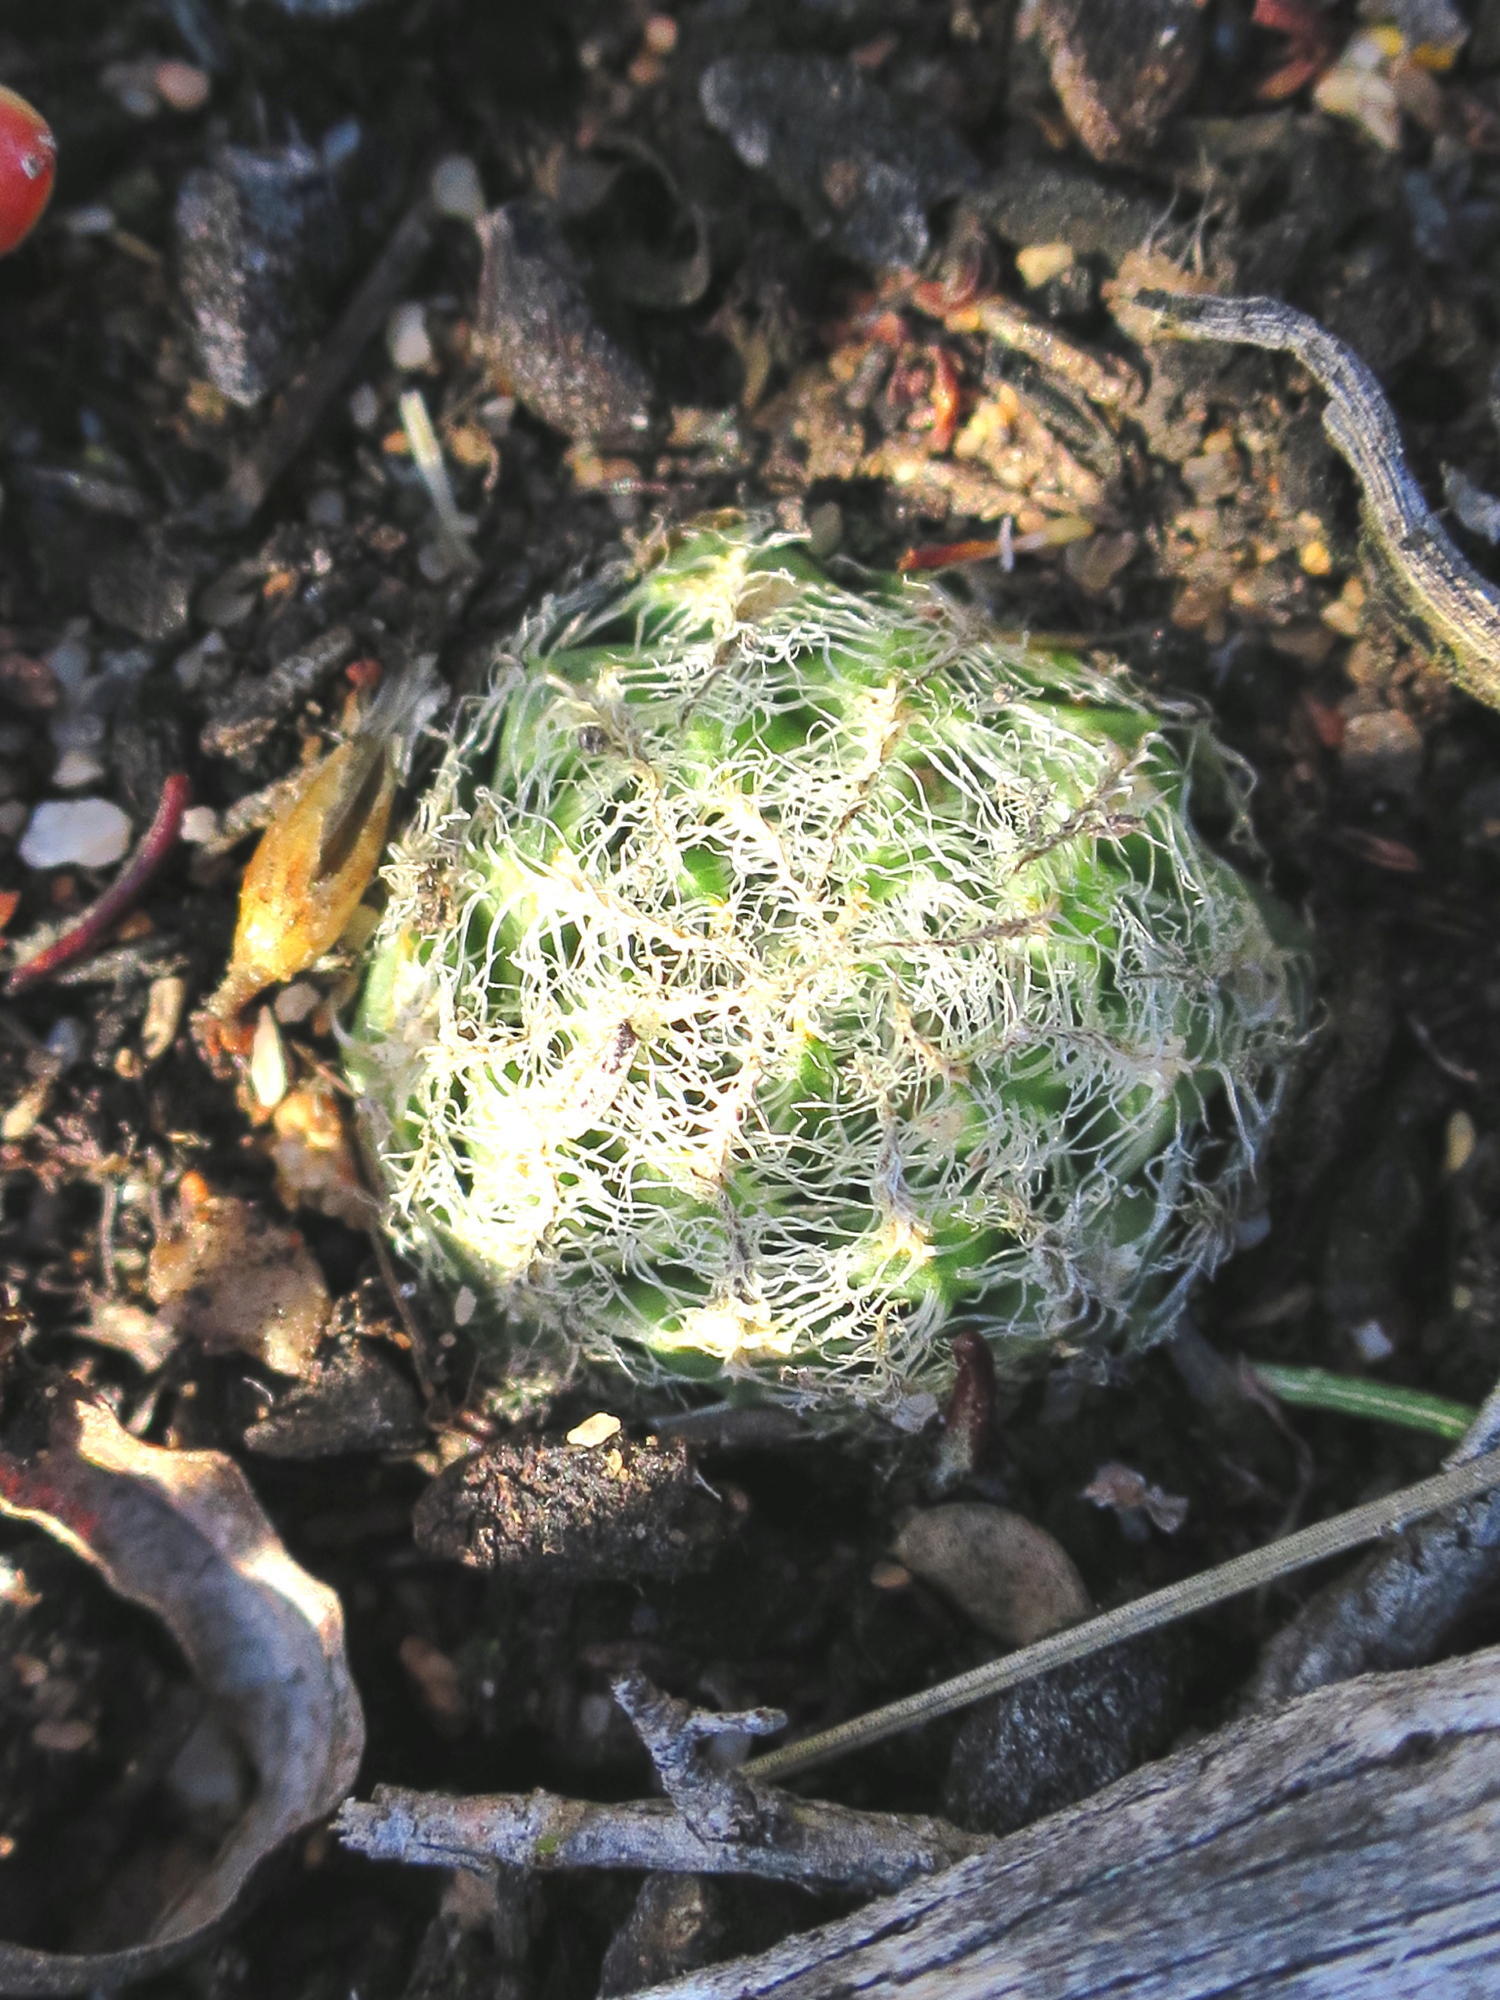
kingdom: Plantae
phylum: Tracheophyta
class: Liliopsida
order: Asparagales
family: Asphodelaceae
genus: Haworthia
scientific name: Haworthia arachnoidea
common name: Cobweb-aloe
